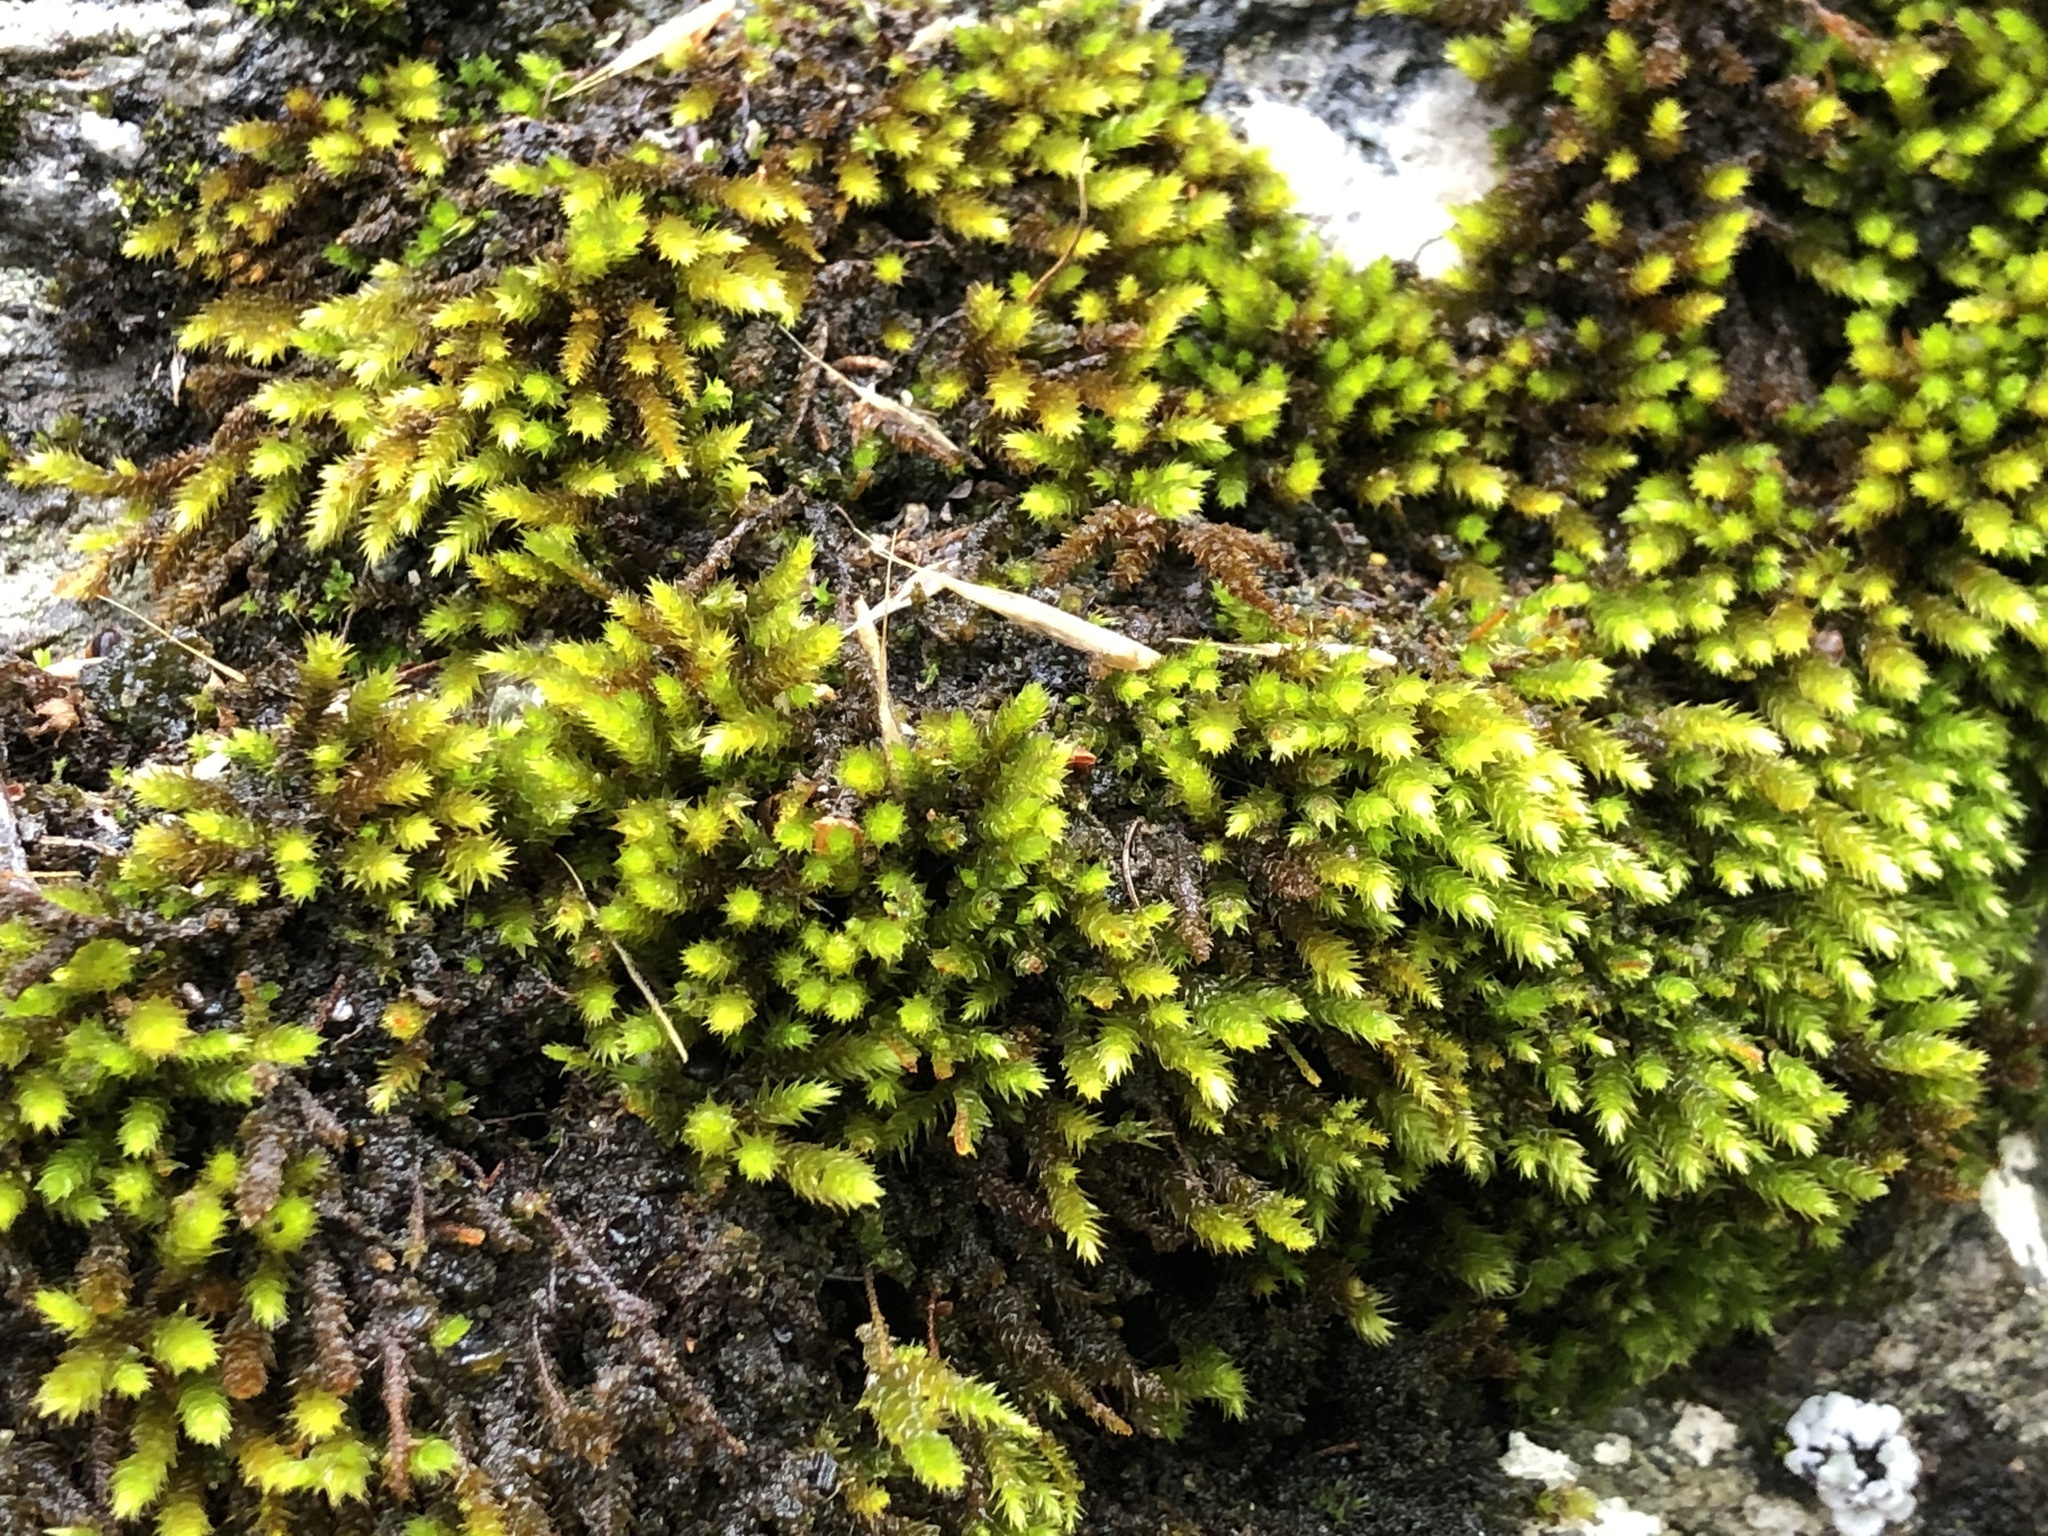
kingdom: Plantae
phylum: Bryophyta
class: Bryopsida
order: Hypnales
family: Leucodontaceae
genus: Leucodon
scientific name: Leucodon sciuroides
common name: Squirrel-tail moss
